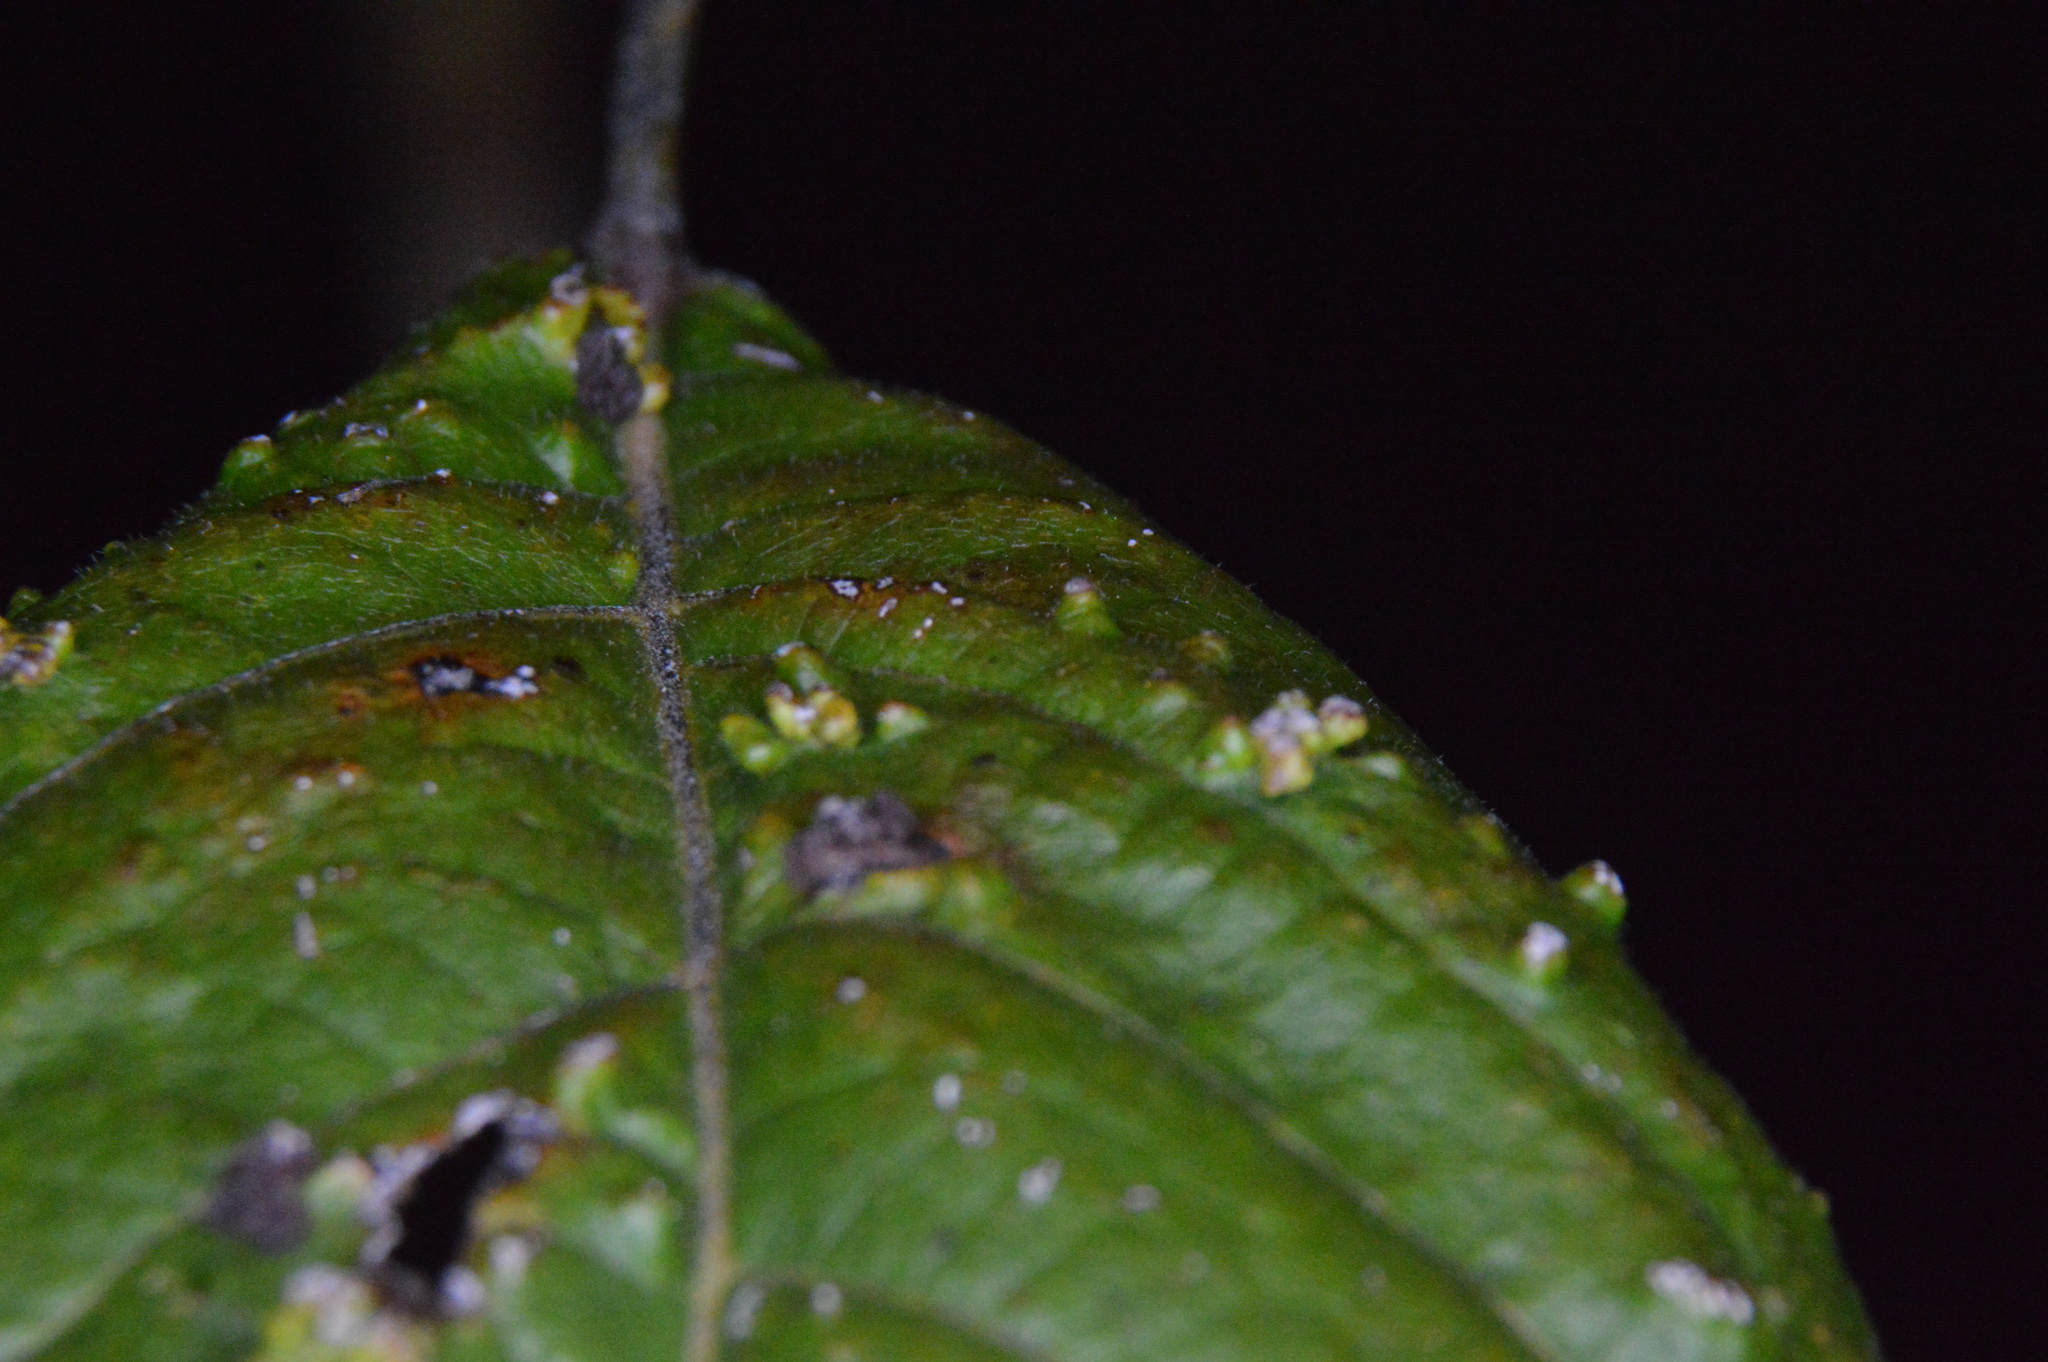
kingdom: Animalia
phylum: Arthropoda
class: Arachnida
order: Trombidiformes
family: Eriophyidae
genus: Aculops
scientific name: Aculops
